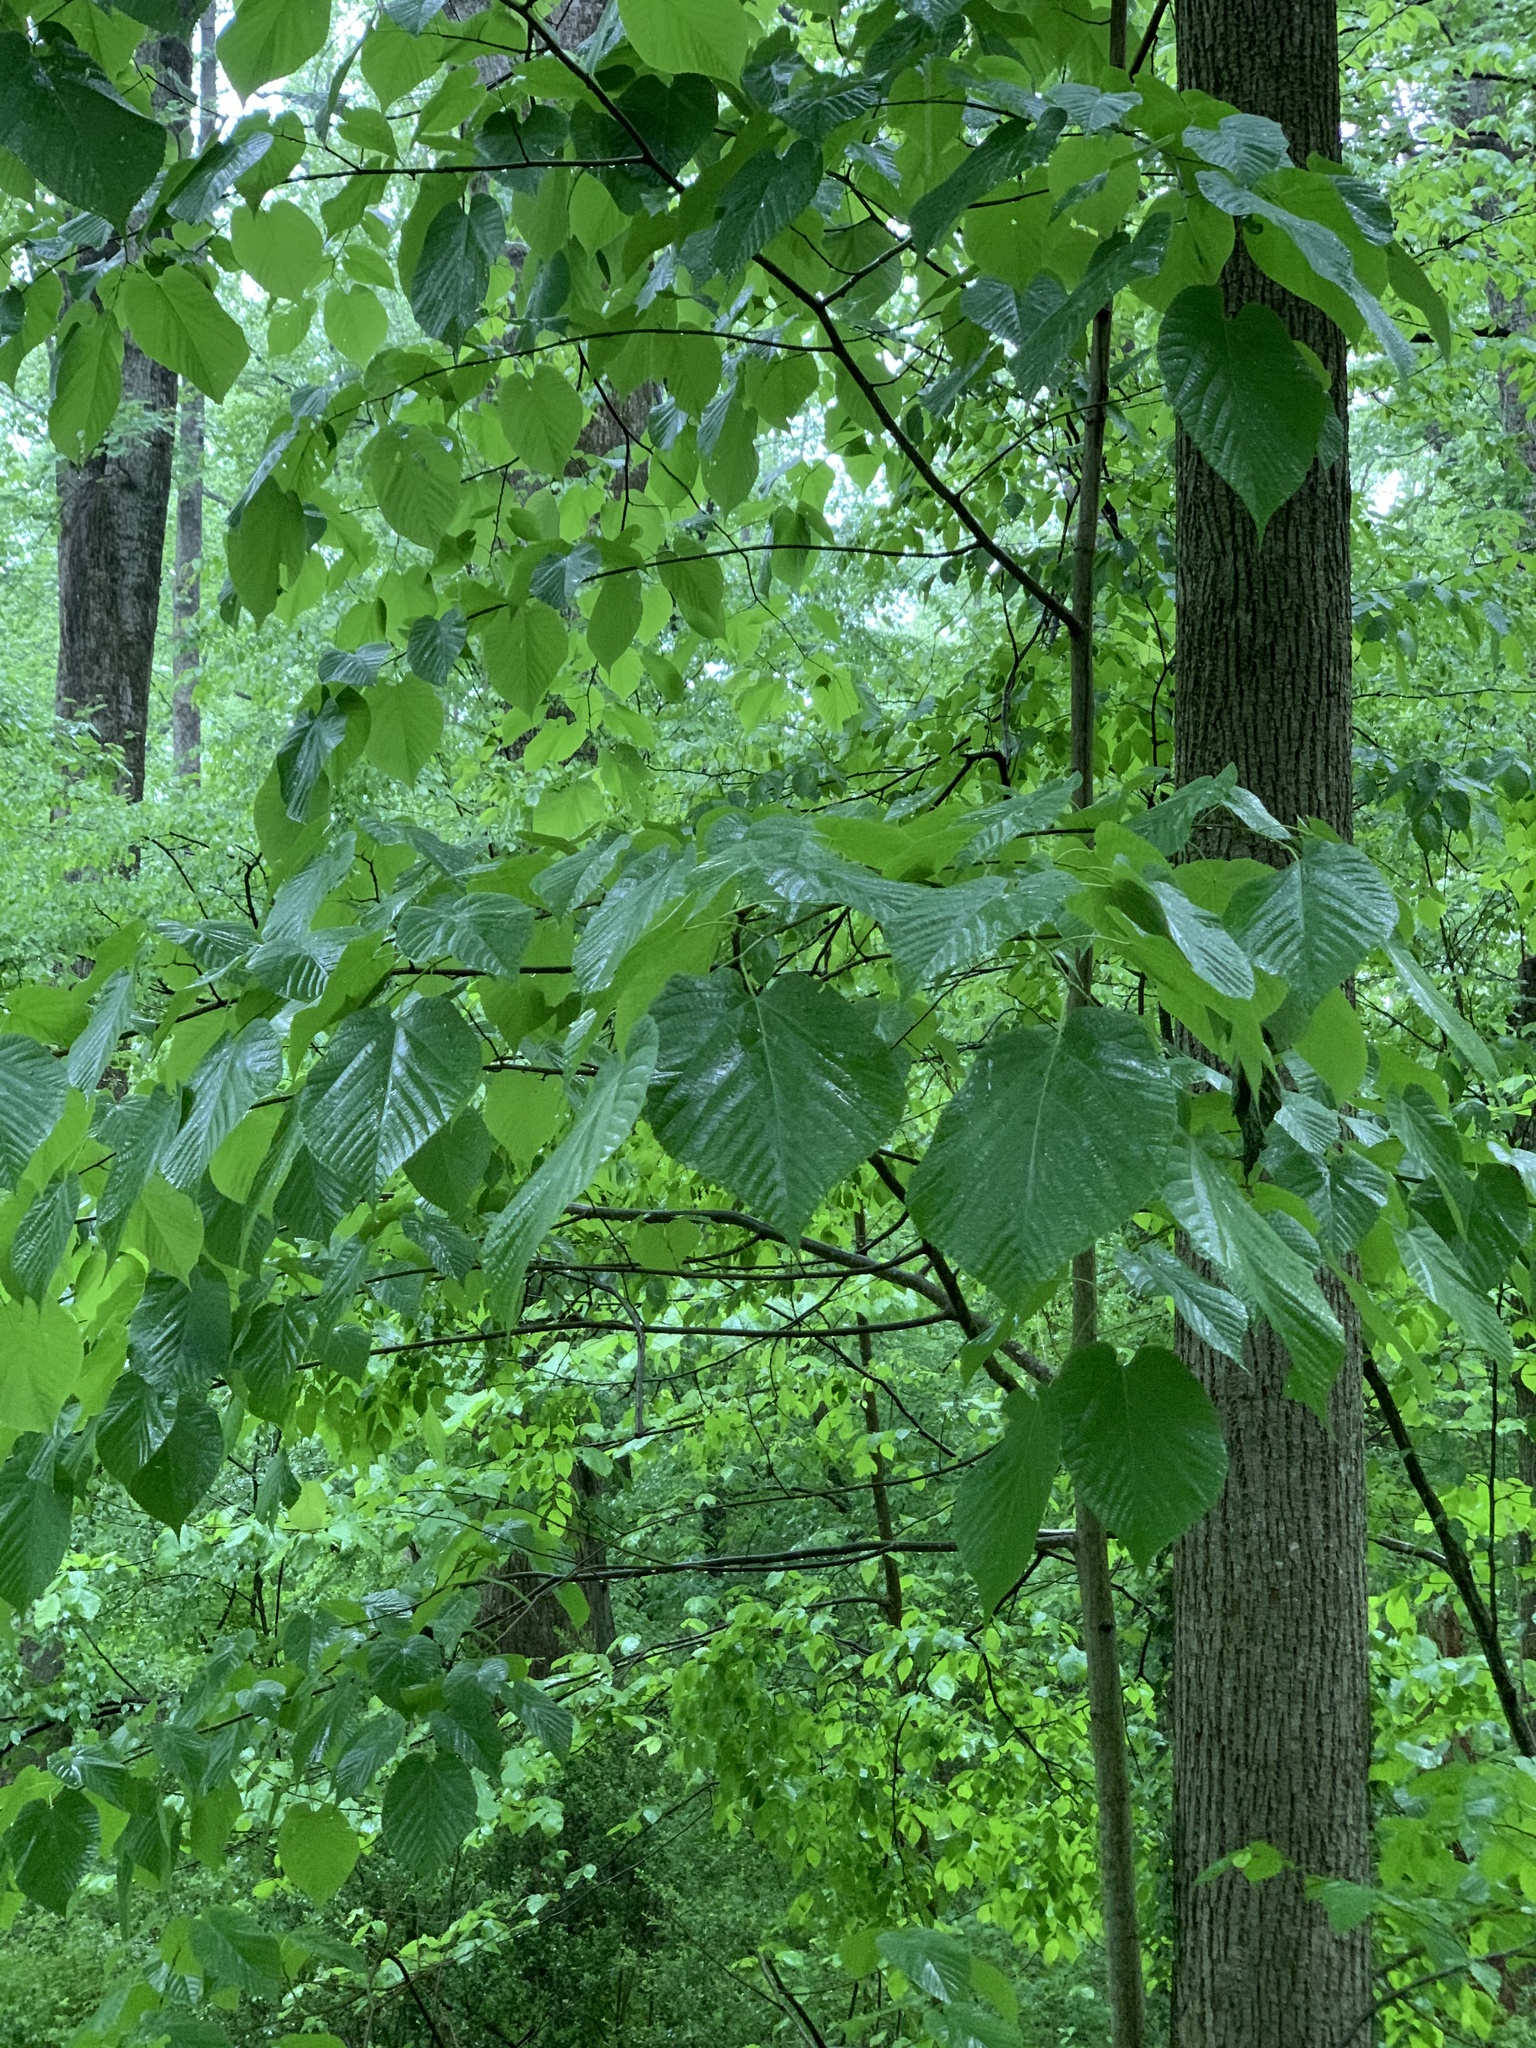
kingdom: Plantae
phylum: Tracheophyta
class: Magnoliopsida
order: Malvales
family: Malvaceae
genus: Tilia
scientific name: Tilia americana
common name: Basswood
